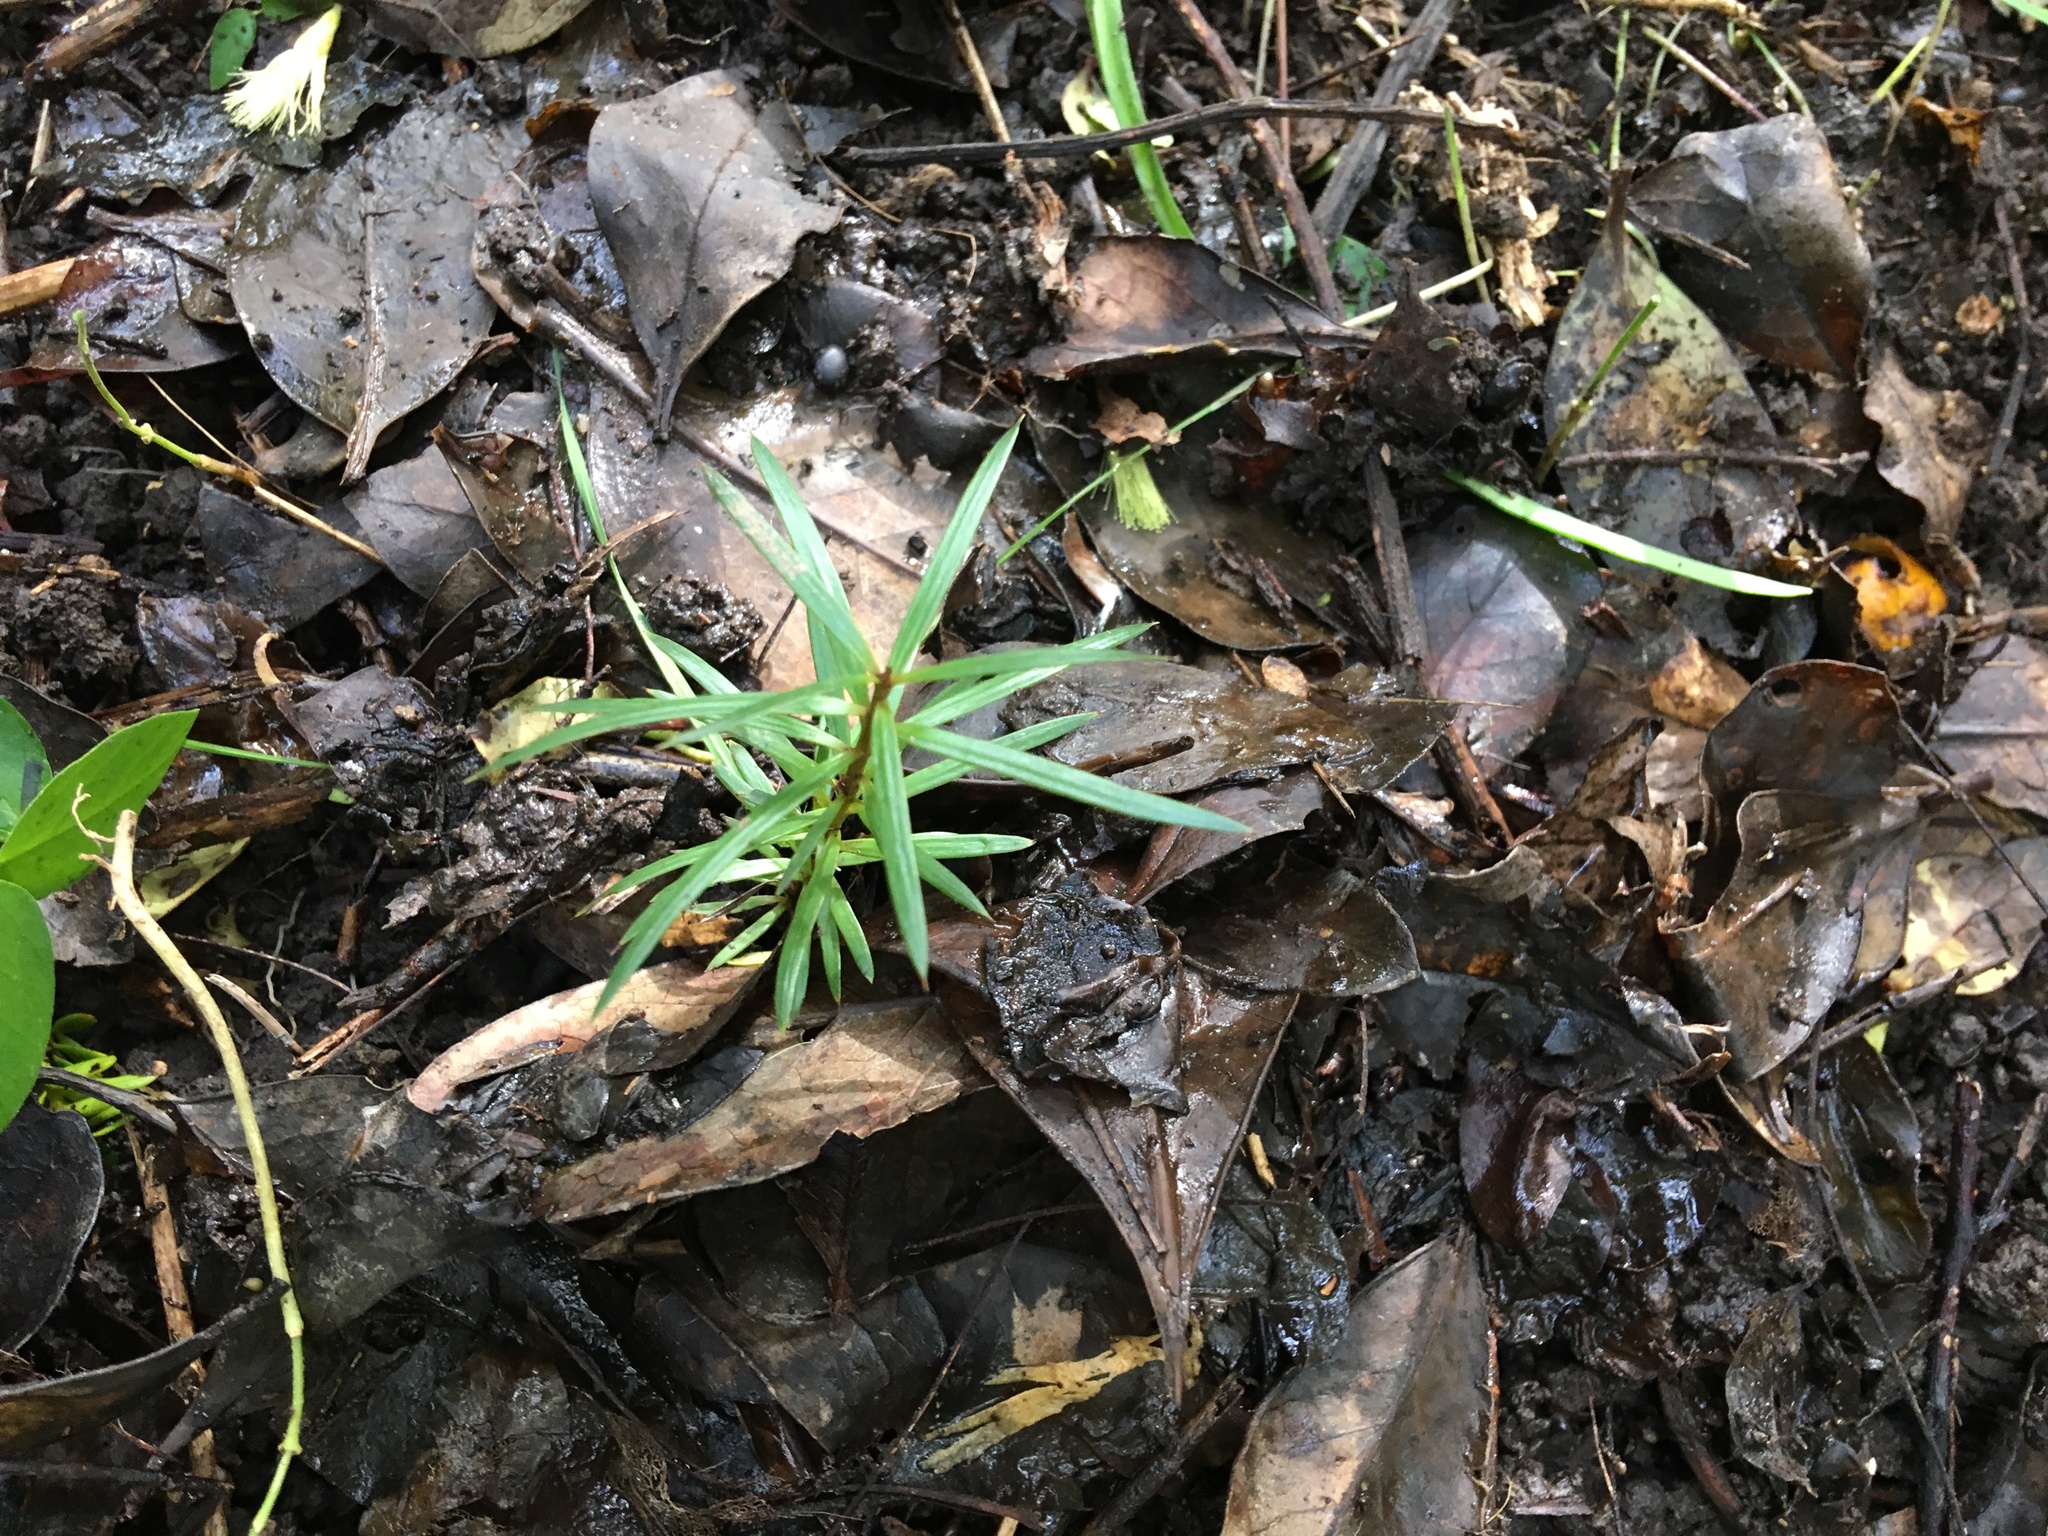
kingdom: Plantae
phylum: Tracheophyta
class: Pinopsida
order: Pinales
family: Podocarpaceae
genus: Podocarpus
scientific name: Podocarpus totara
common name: Totara
